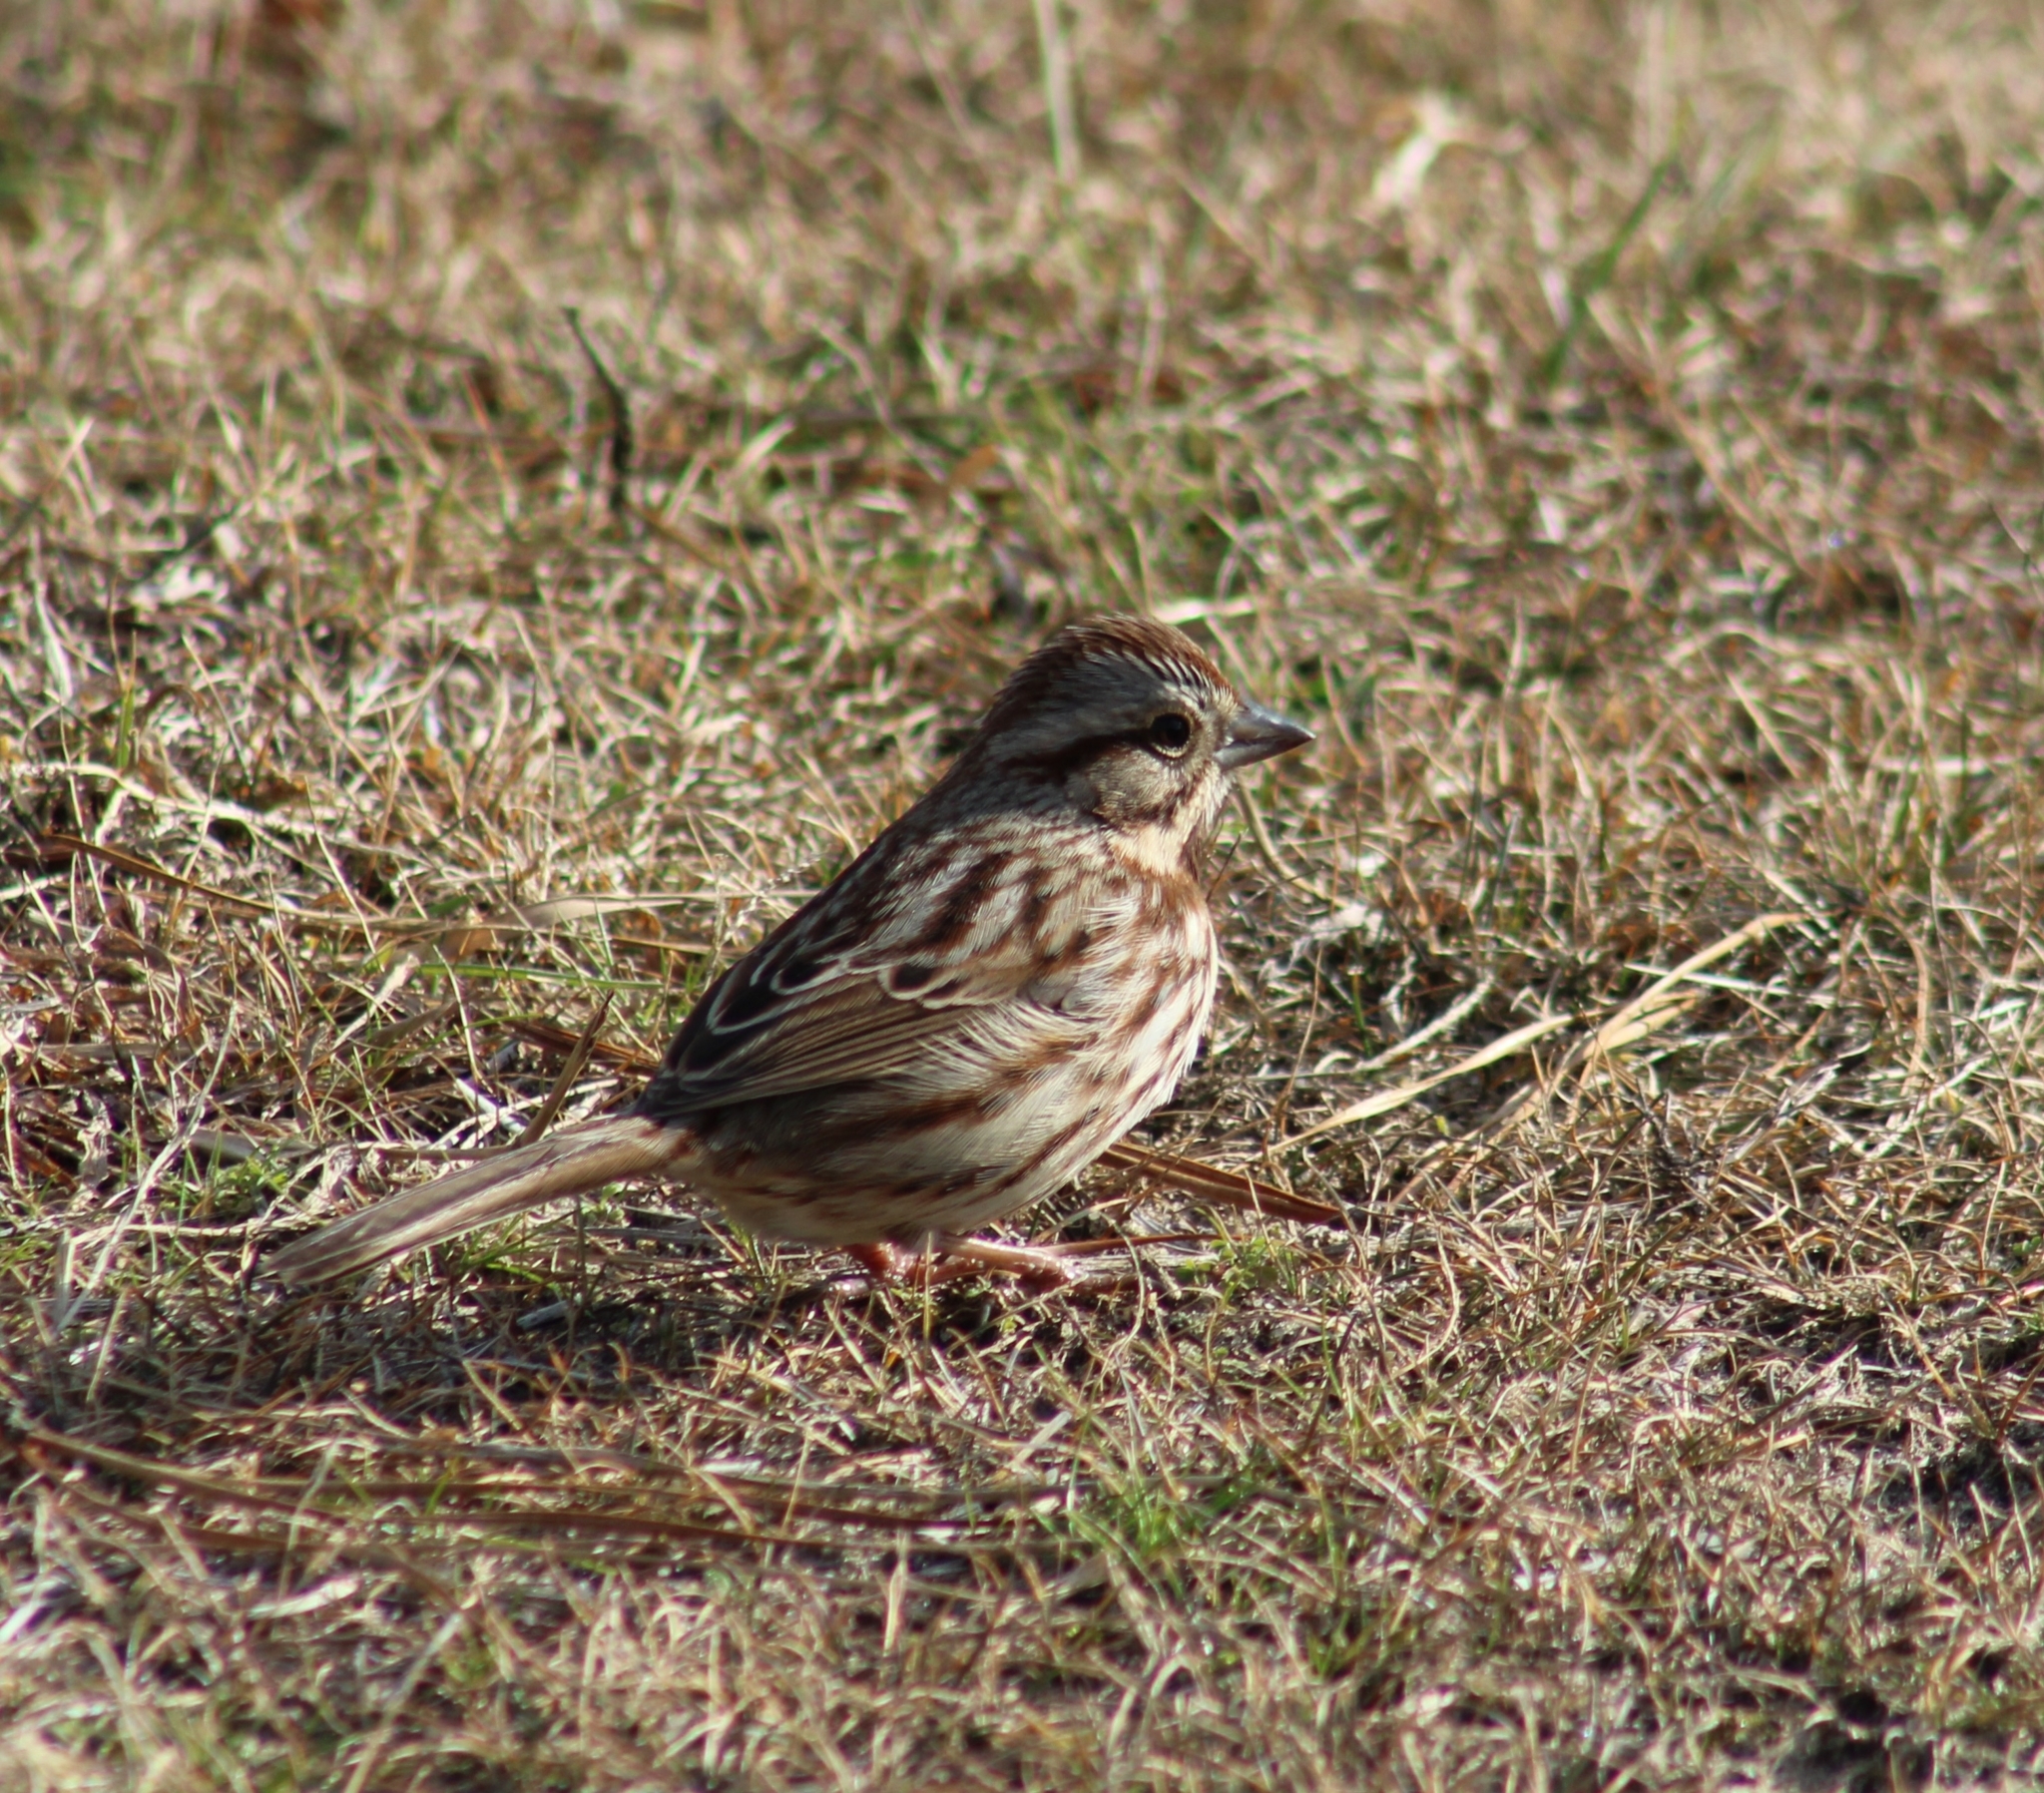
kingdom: Animalia
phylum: Chordata
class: Aves
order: Passeriformes
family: Passerellidae
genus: Melospiza
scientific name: Melospiza melodia
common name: Song sparrow
